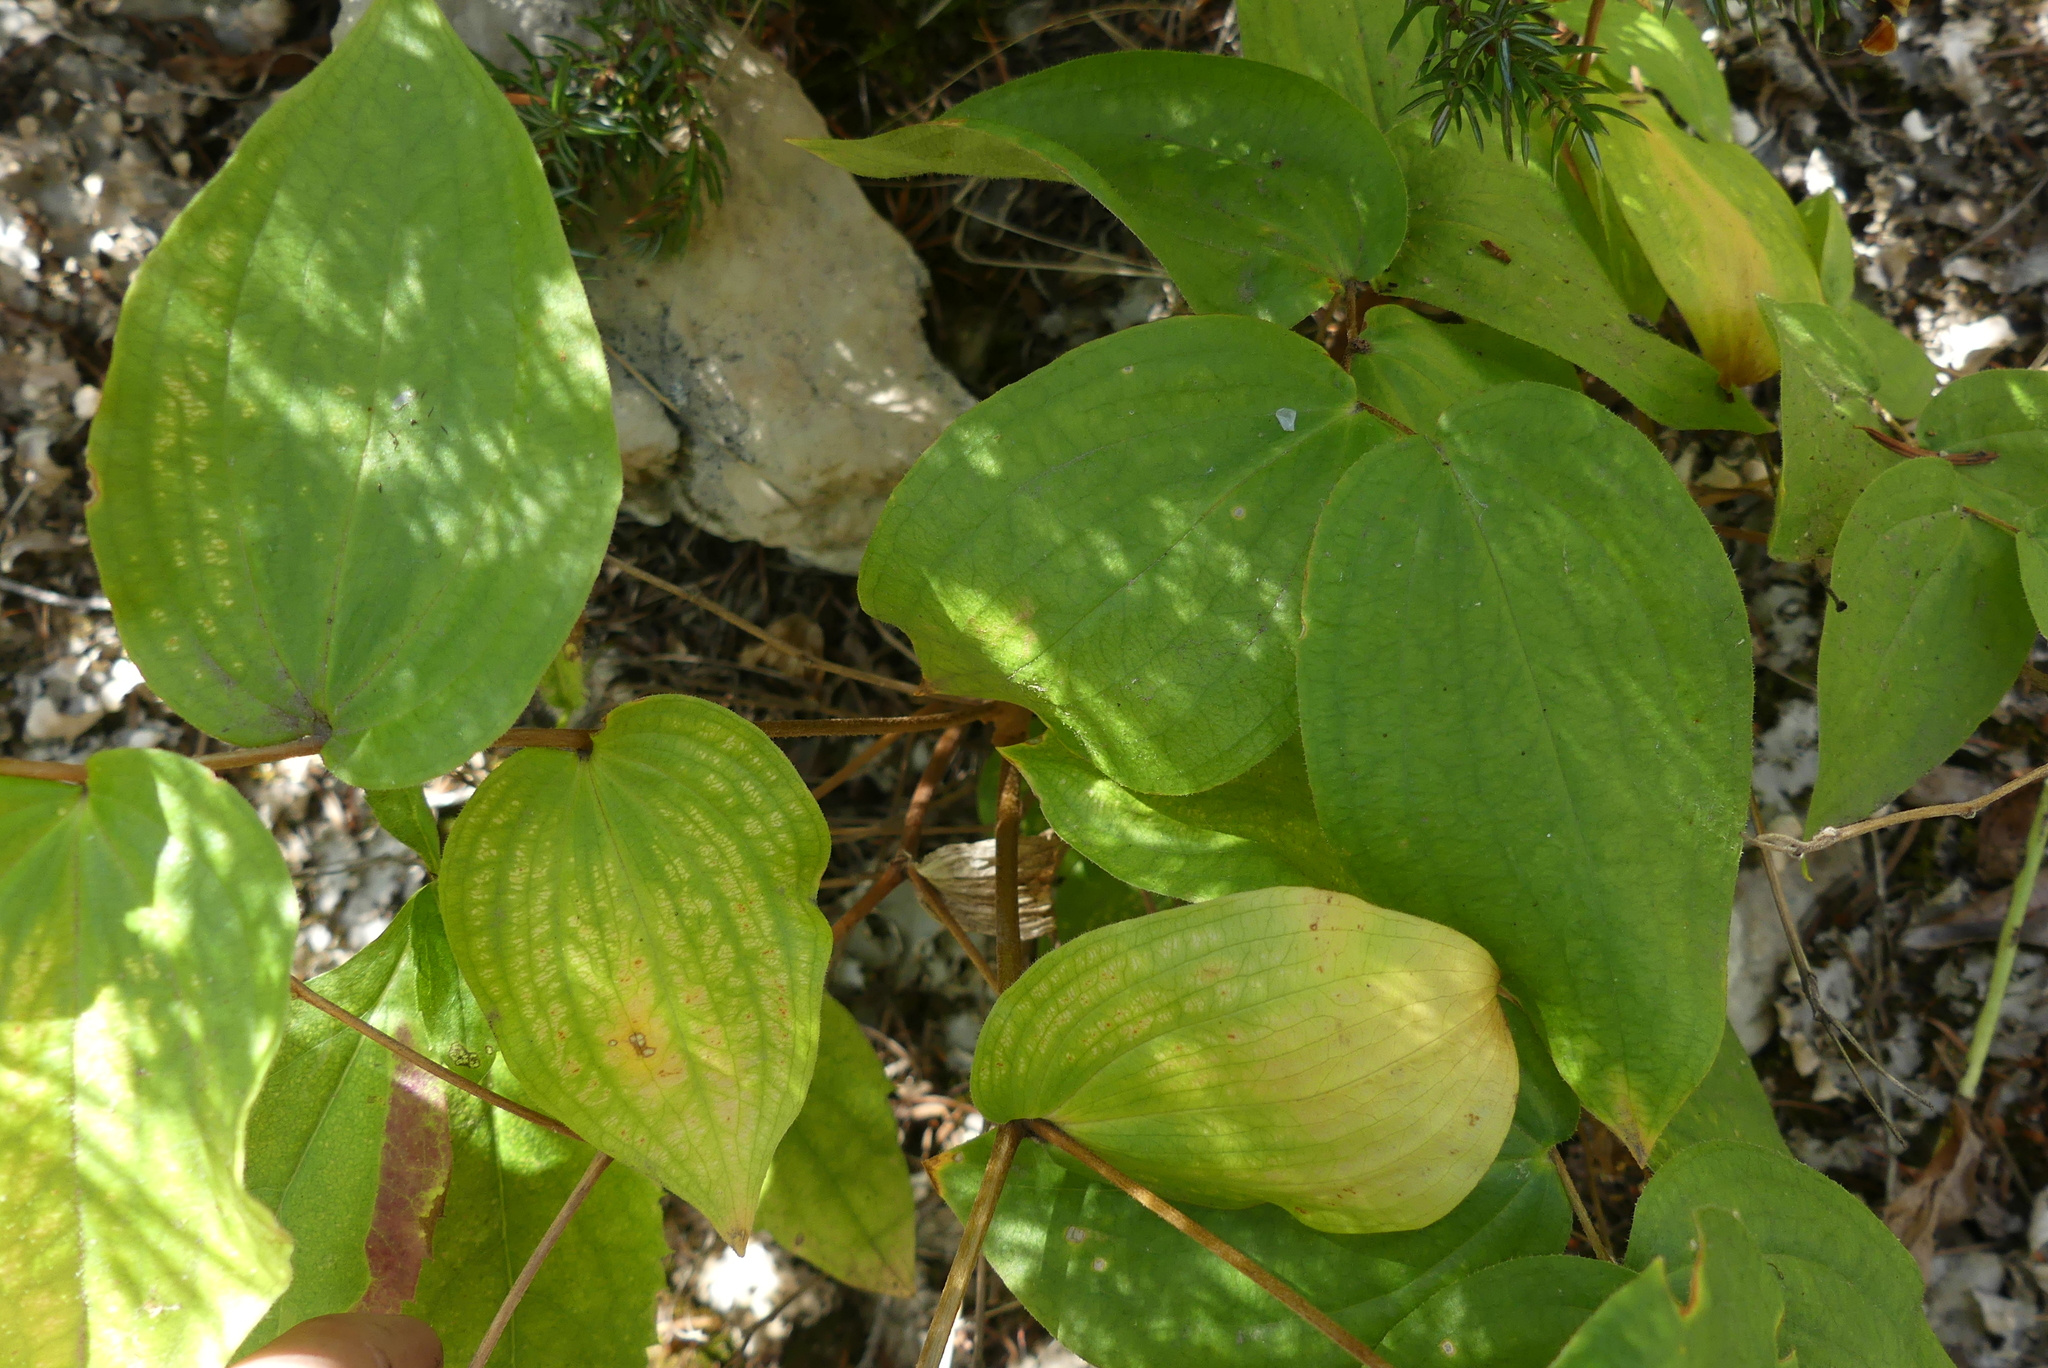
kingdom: Plantae
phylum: Tracheophyta
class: Liliopsida
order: Liliales
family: Liliaceae
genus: Prosartes
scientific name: Prosartes trachycarpa
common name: Rough-fruit fairy-bells
